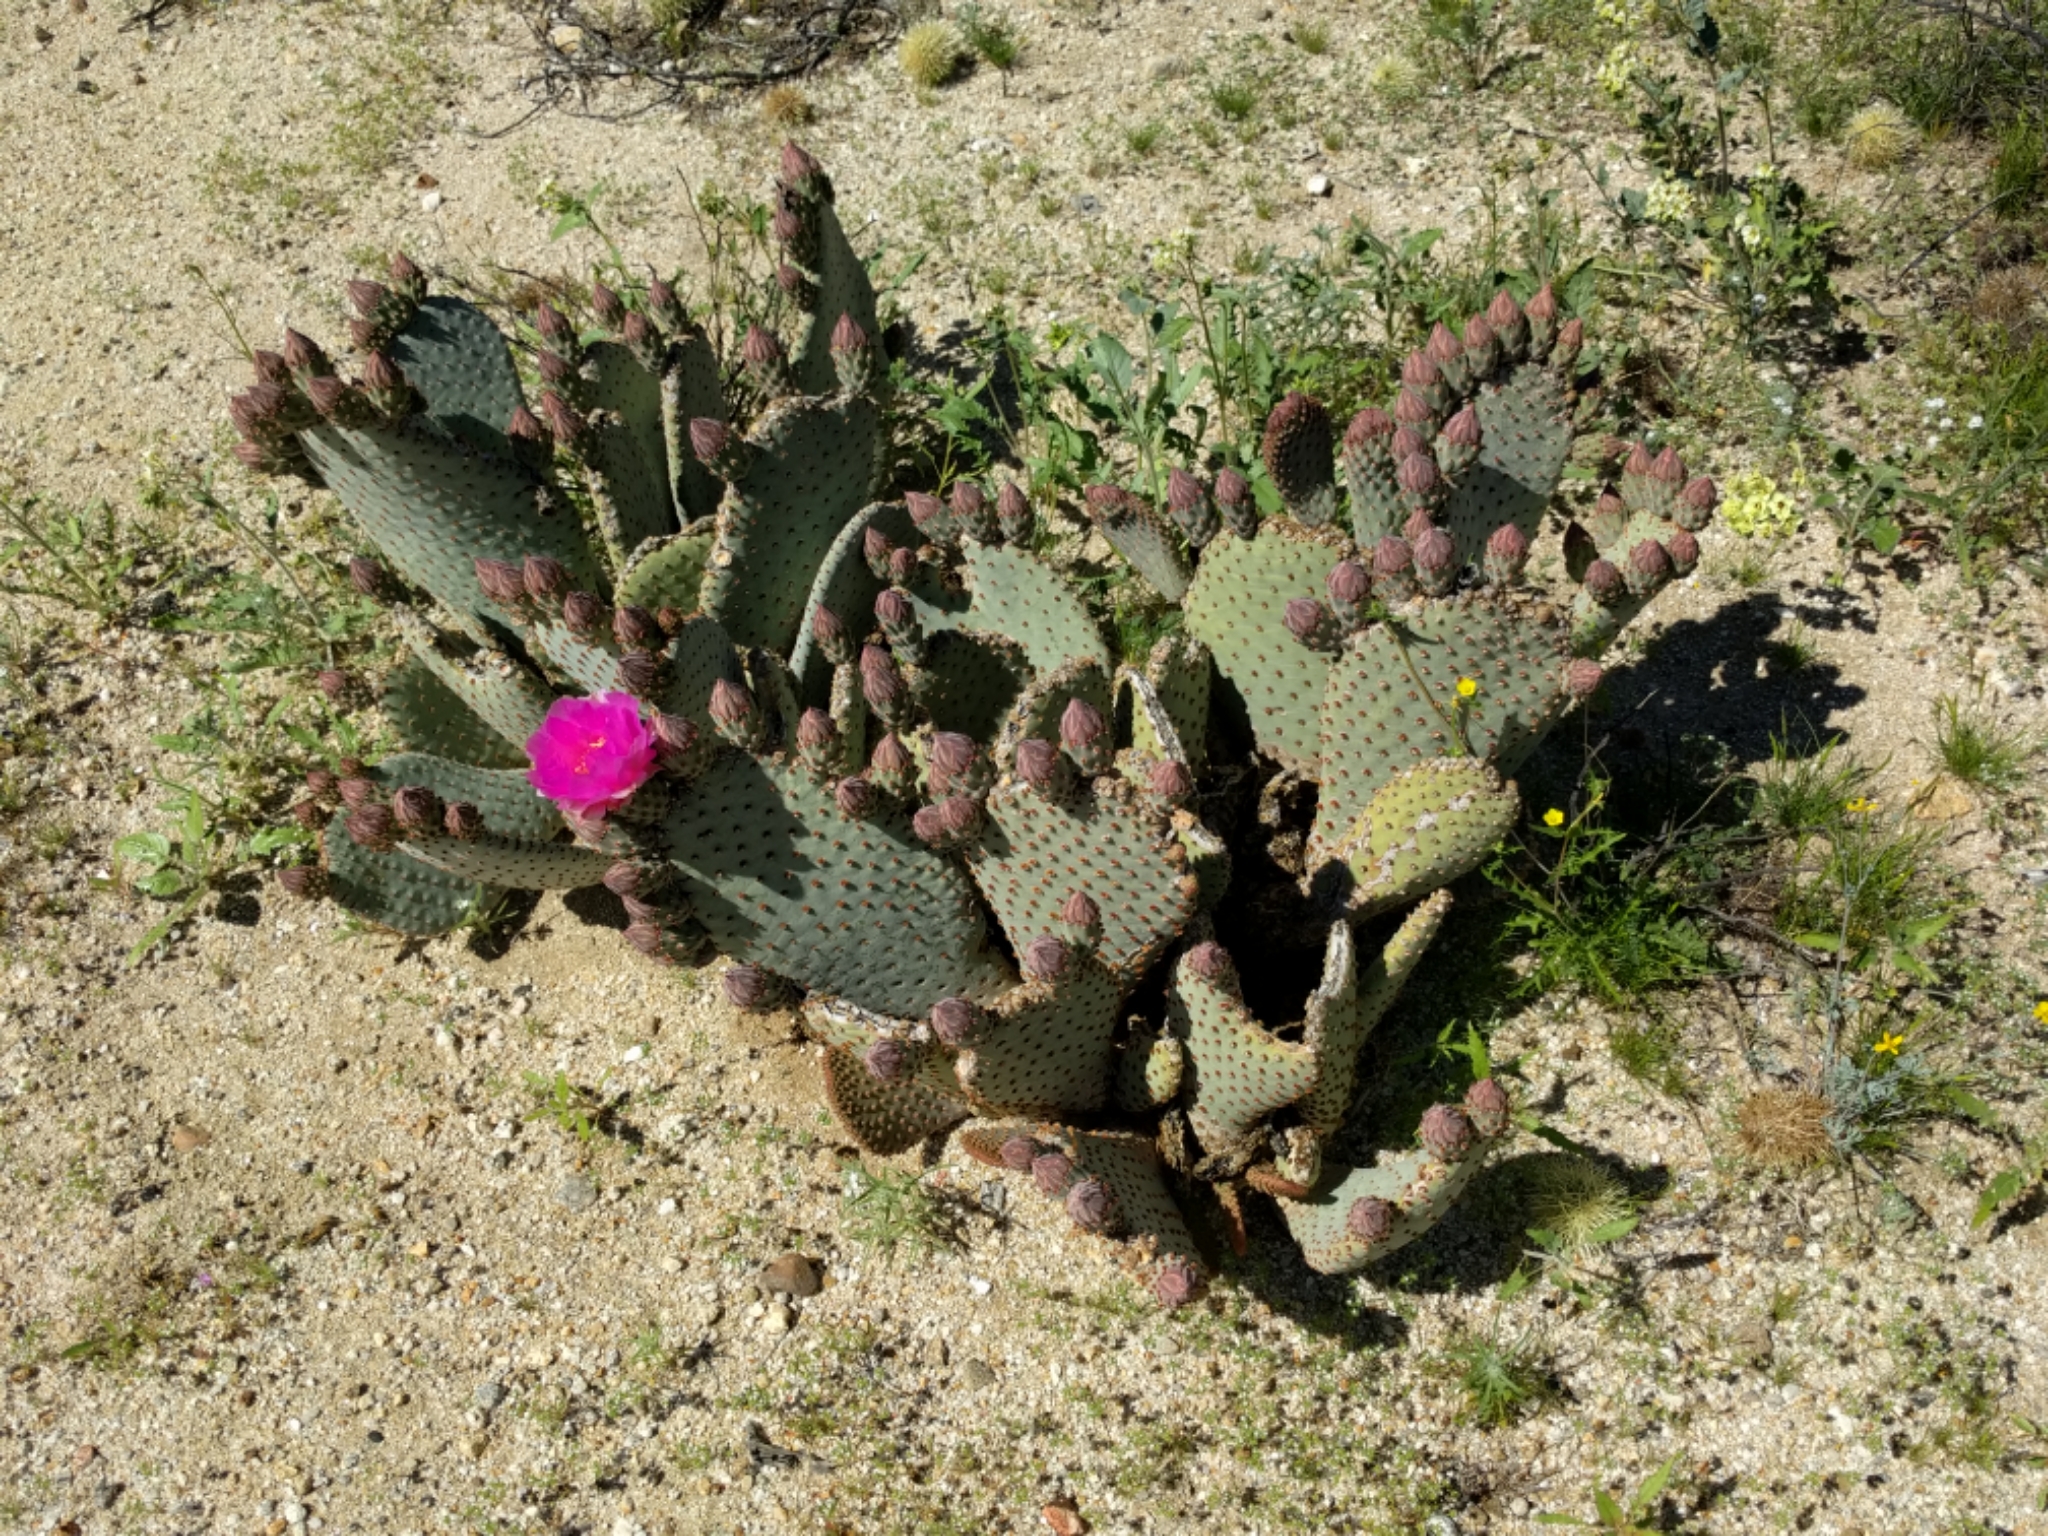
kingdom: Plantae
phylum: Tracheophyta
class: Magnoliopsida
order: Caryophyllales
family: Cactaceae
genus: Opuntia
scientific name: Opuntia basilaris
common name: Beavertail prickly-pear
